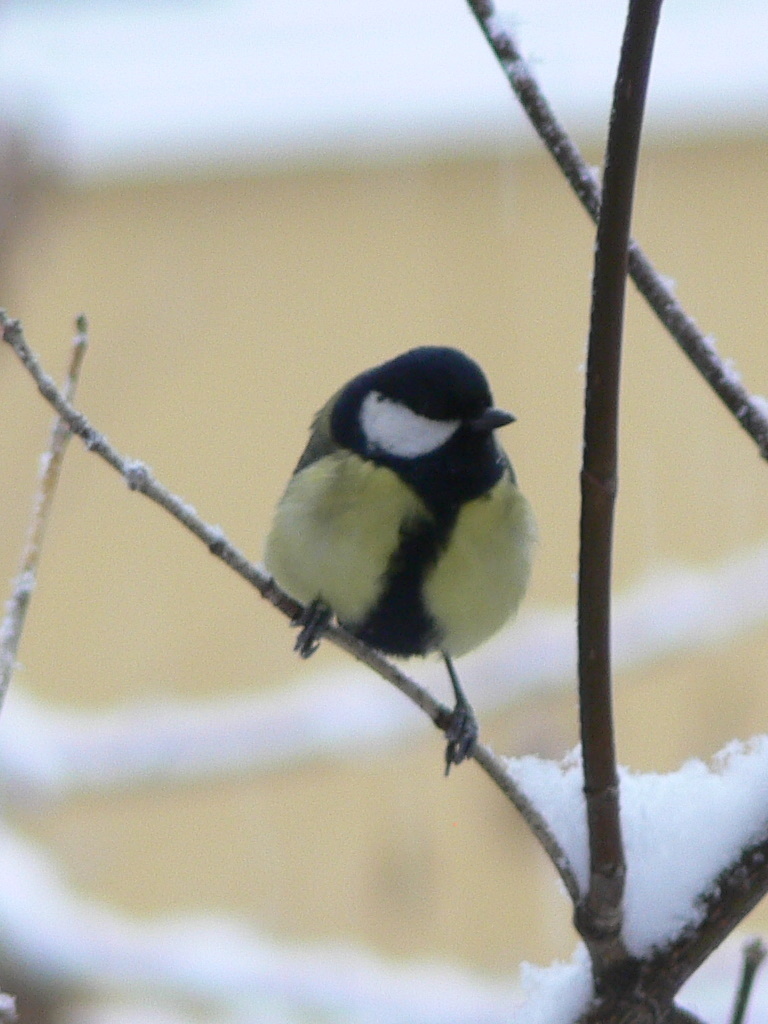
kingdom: Animalia
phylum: Chordata
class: Aves
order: Passeriformes
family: Paridae
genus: Parus
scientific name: Parus major
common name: Great tit
